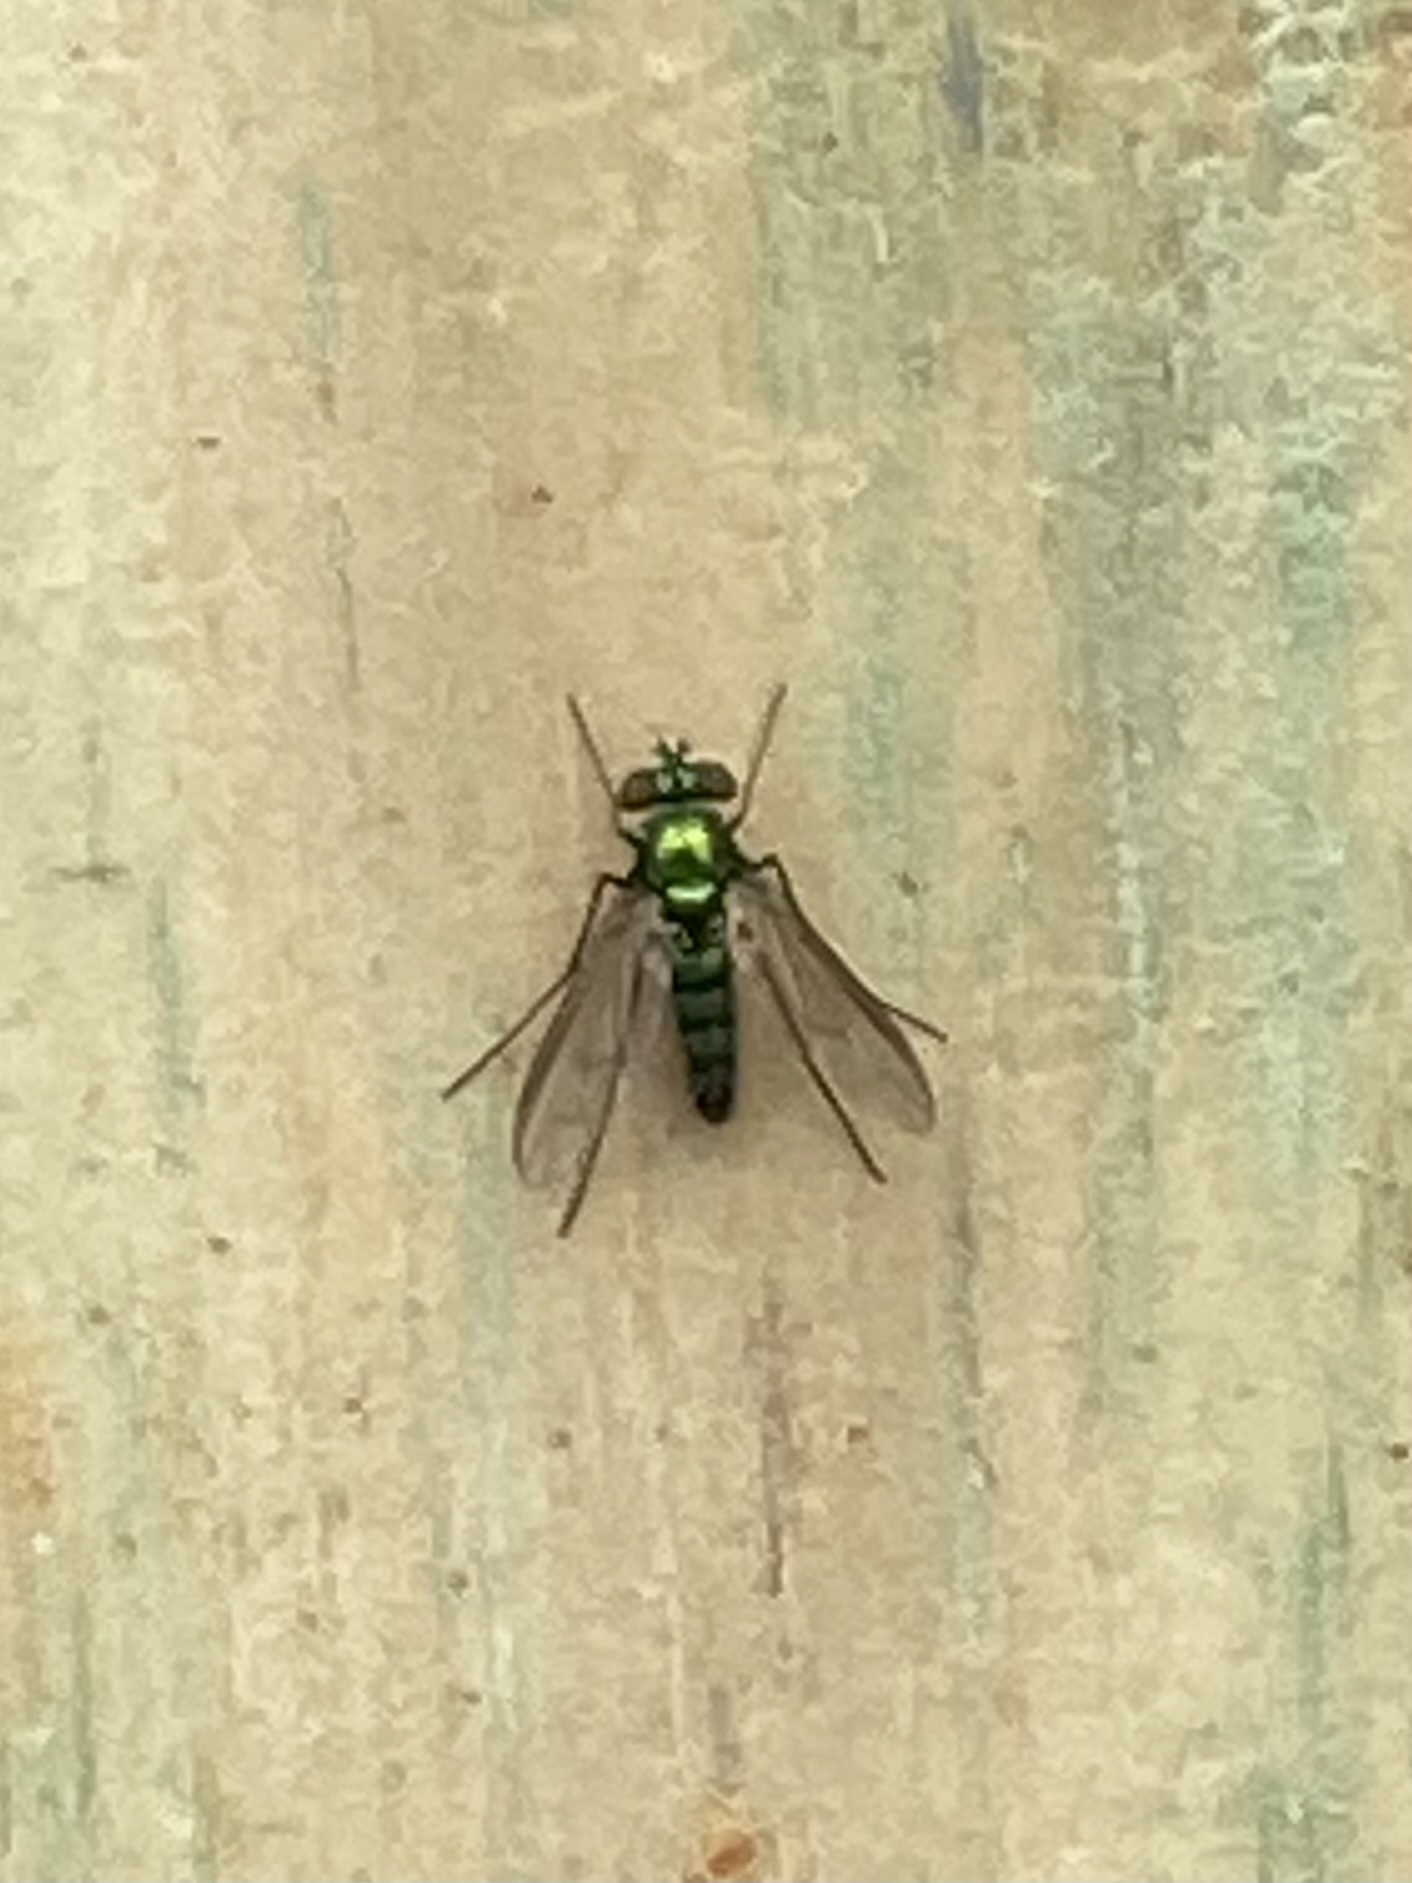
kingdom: Animalia
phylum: Arthropoda
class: Insecta
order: Diptera
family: Dolichopodidae
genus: Condylostylus
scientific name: Condylostylus longicornis
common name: Long-legged fly
